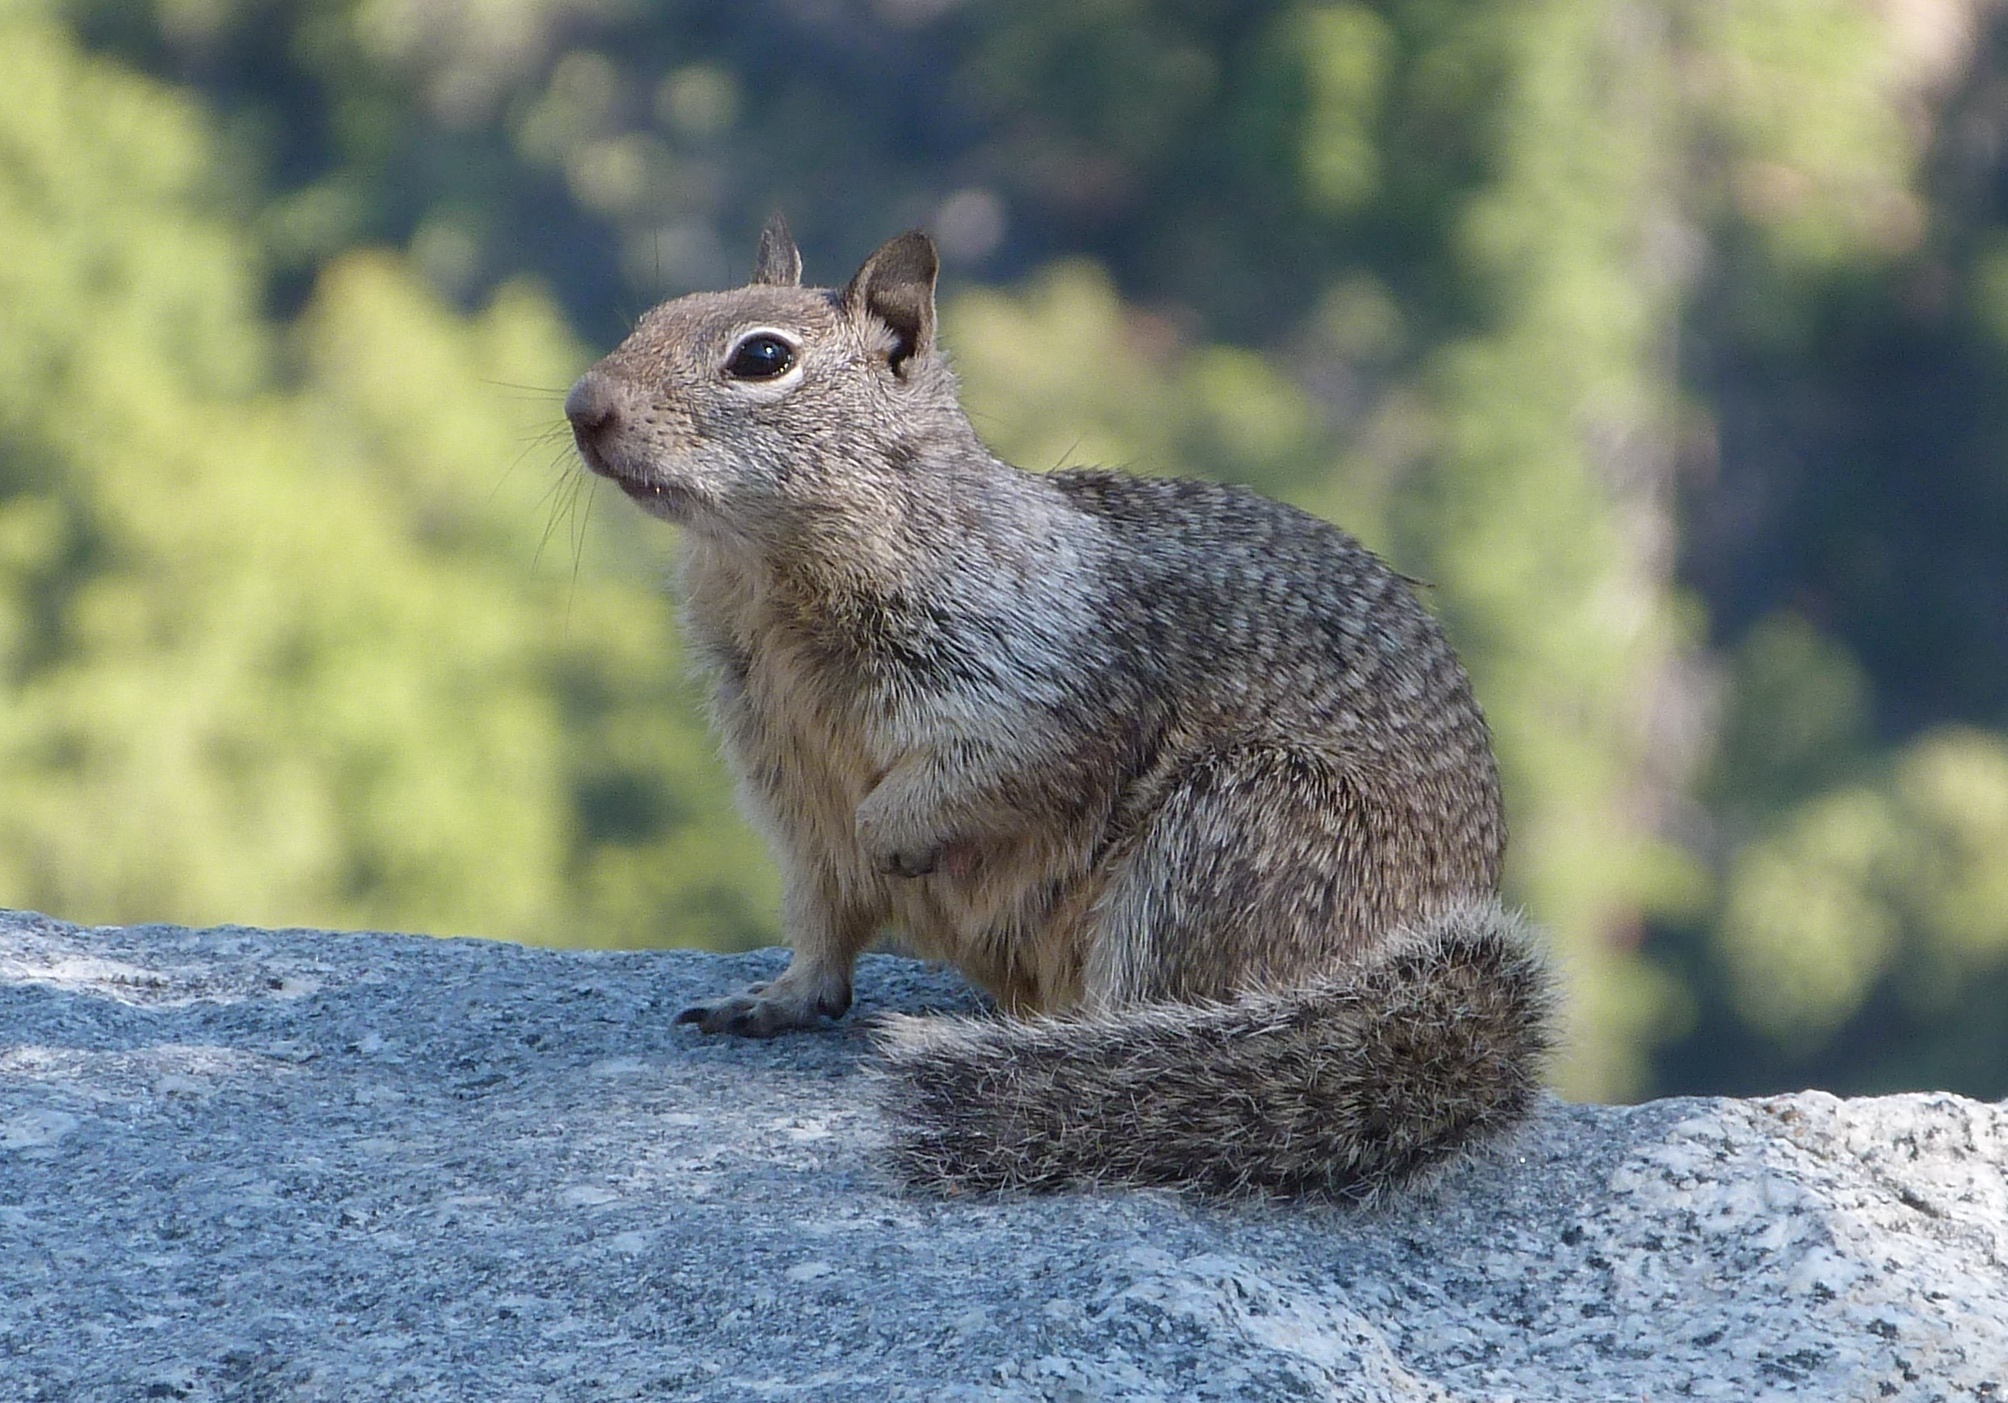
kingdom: Animalia
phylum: Chordata
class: Mammalia
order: Rodentia
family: Sciuridae
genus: Otospermophilus
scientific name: Otospermophilus beecheyi
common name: California ground squirrel
